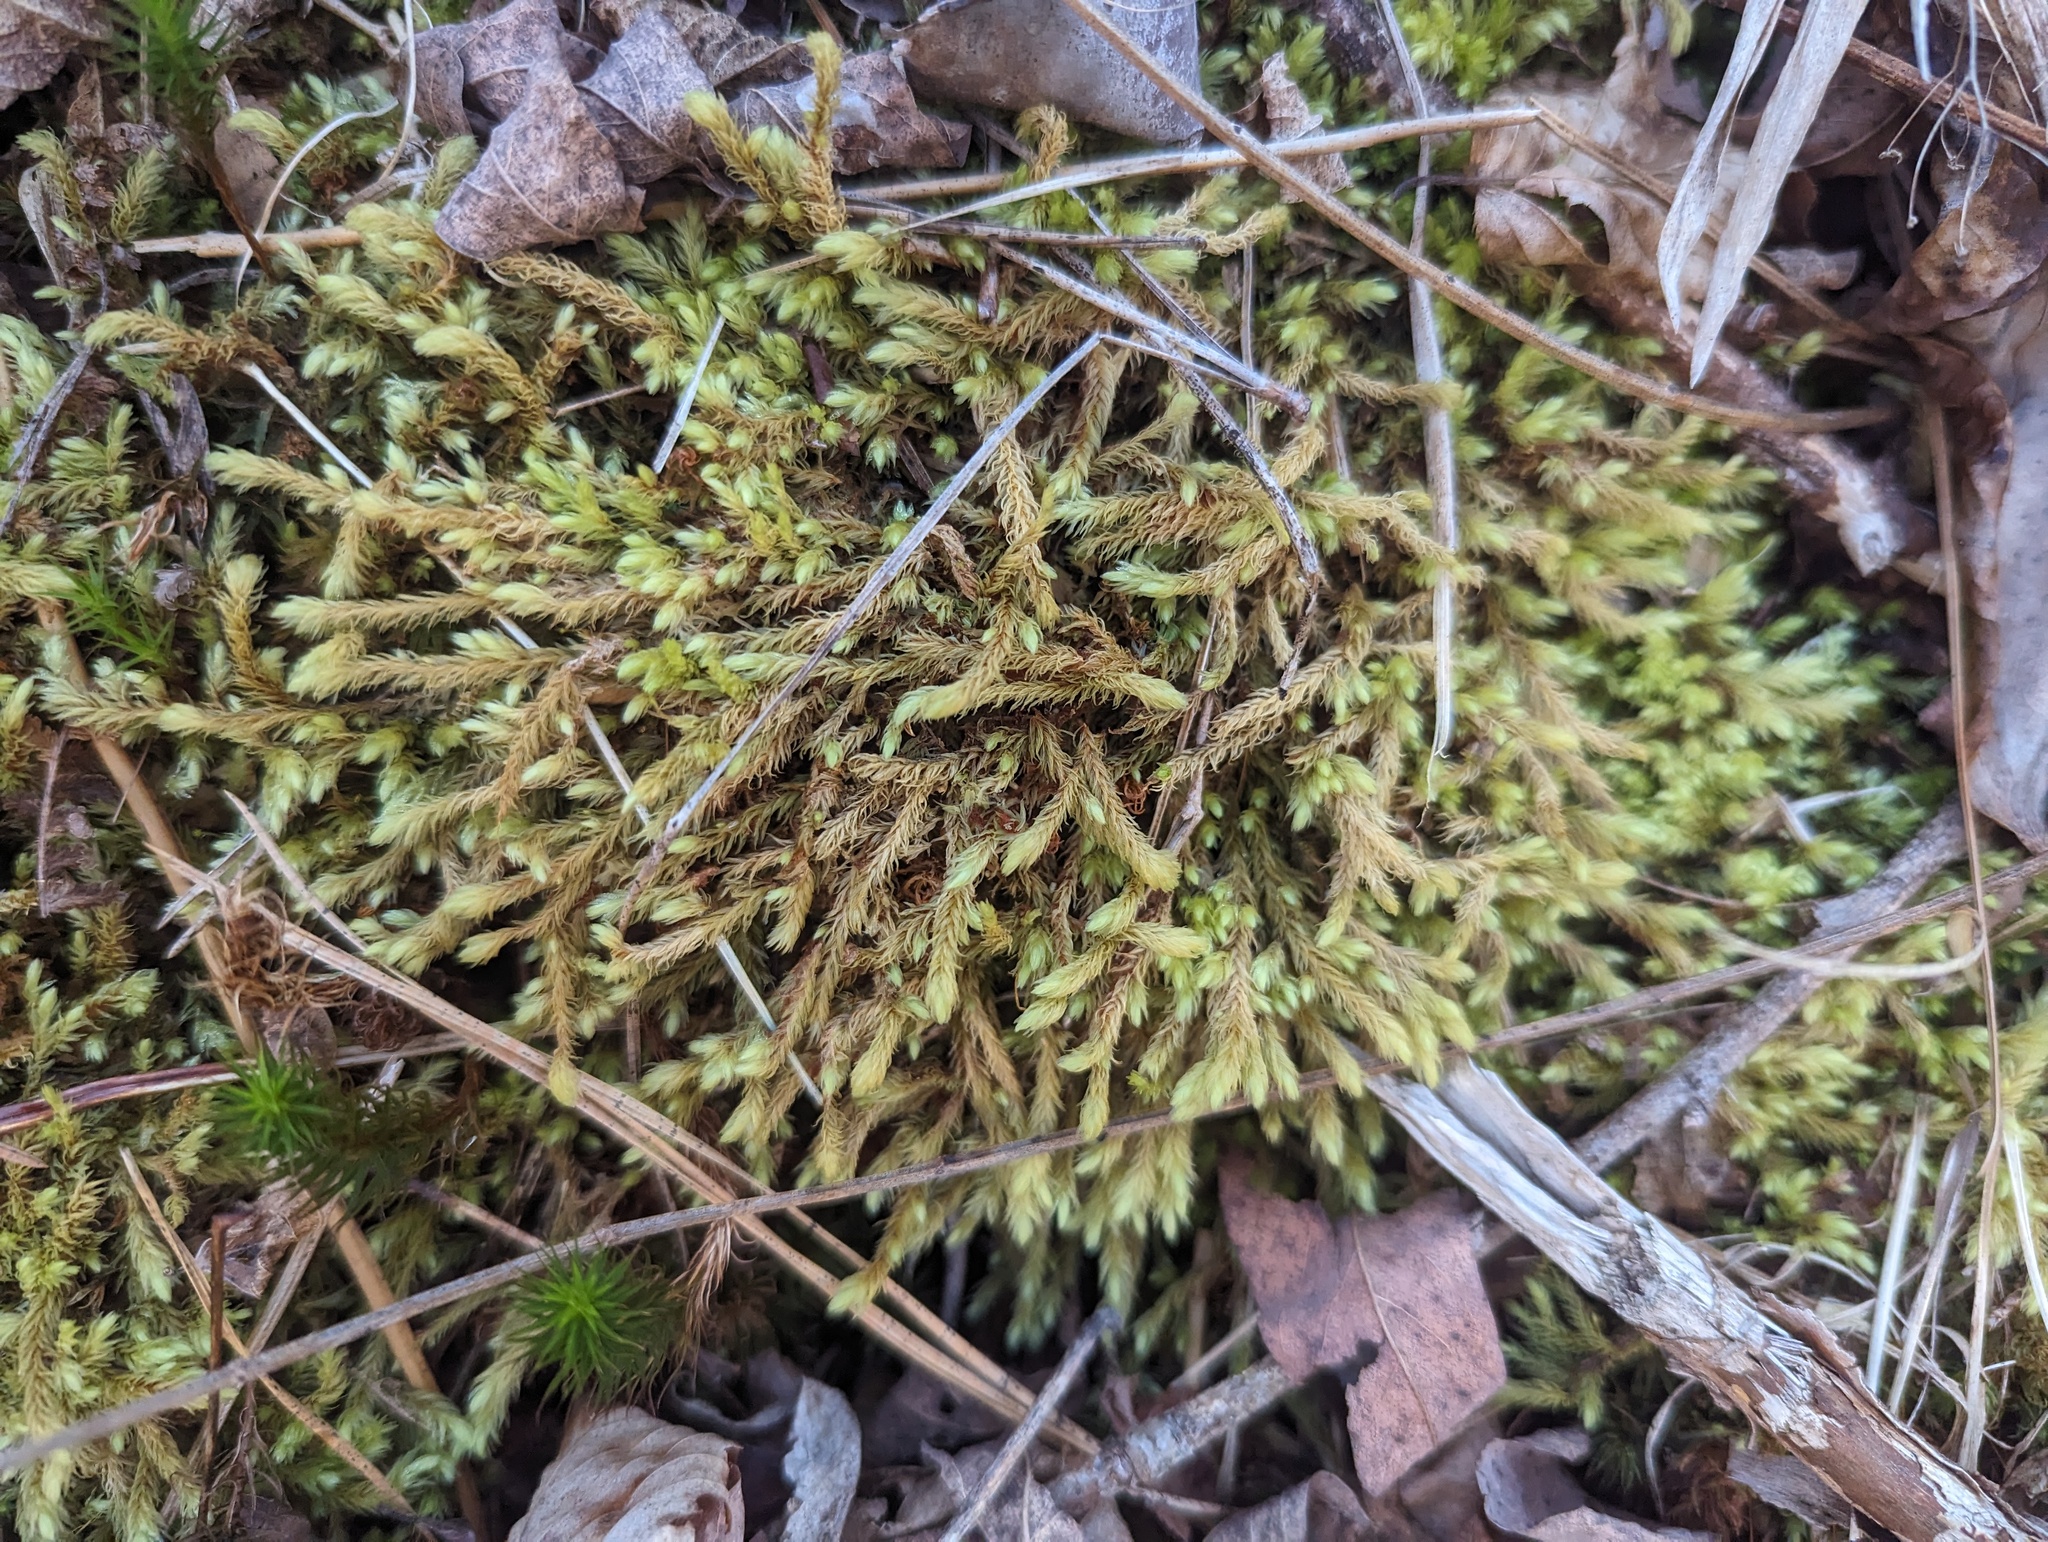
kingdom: Plantae
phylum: Bryophyta
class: Bryopsida
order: Aulacomniales
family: Aulacomniaceae
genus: Aulacomnium
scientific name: Aulacomnium palustre
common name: Bog groove-moss
